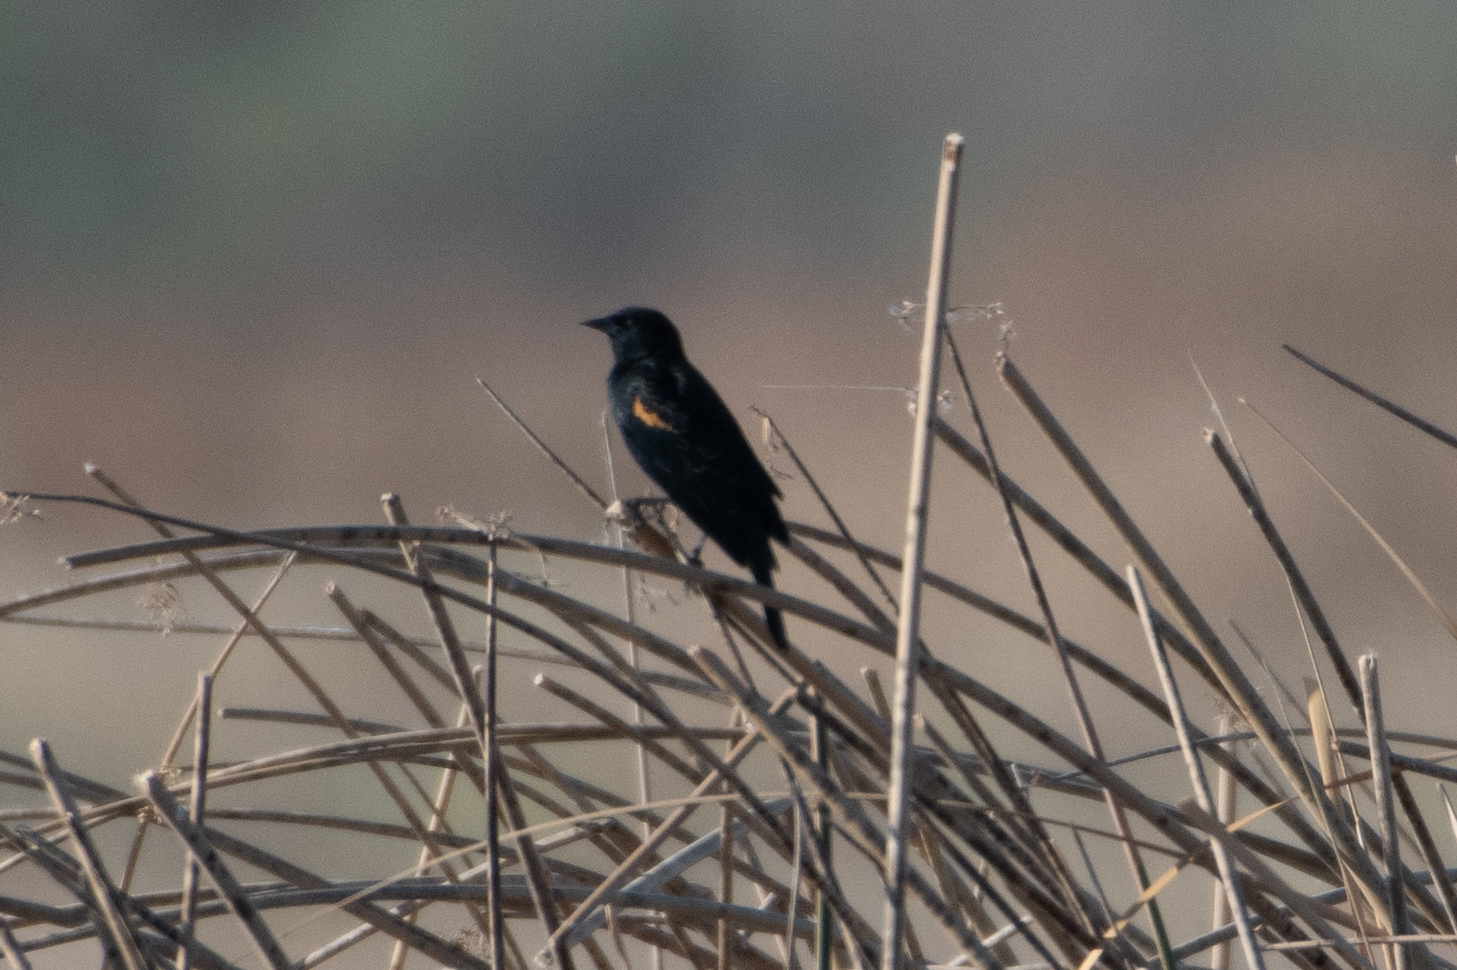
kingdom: Animalia
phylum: Chordata
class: Aves
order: Passeriformes
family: Icteridae
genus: Agelaius
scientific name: Agelaius phoeniceus
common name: Red-winged blackbird
